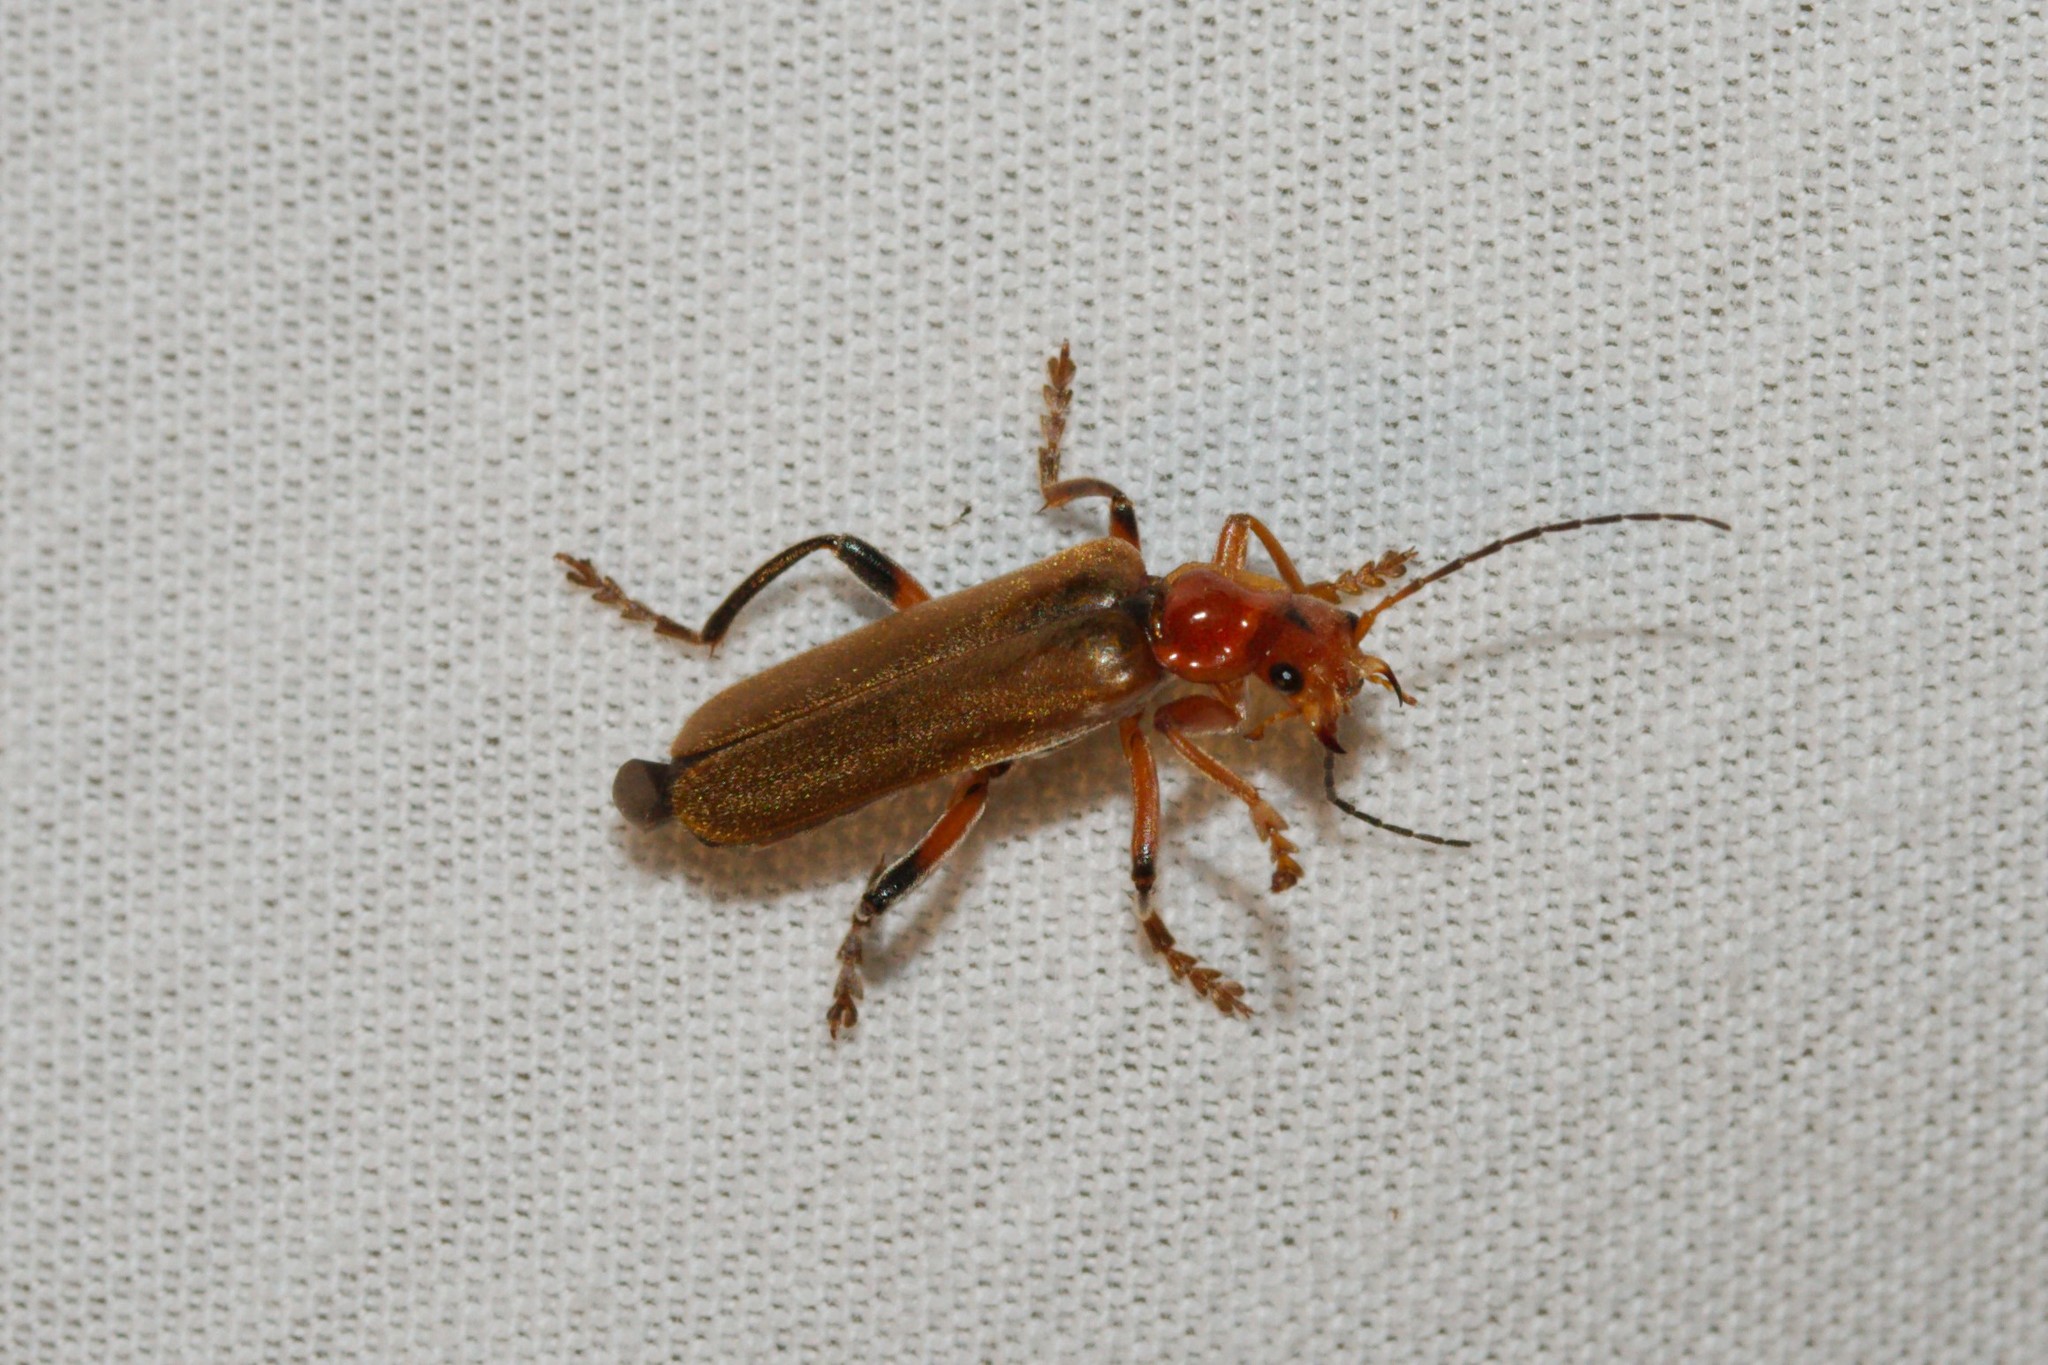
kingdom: Animalia
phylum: Arthropoda
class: Insecta
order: Coleoptera
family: Cantharidae
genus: Cantharis
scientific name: Cantharis livida
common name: Livid soldier beetle
